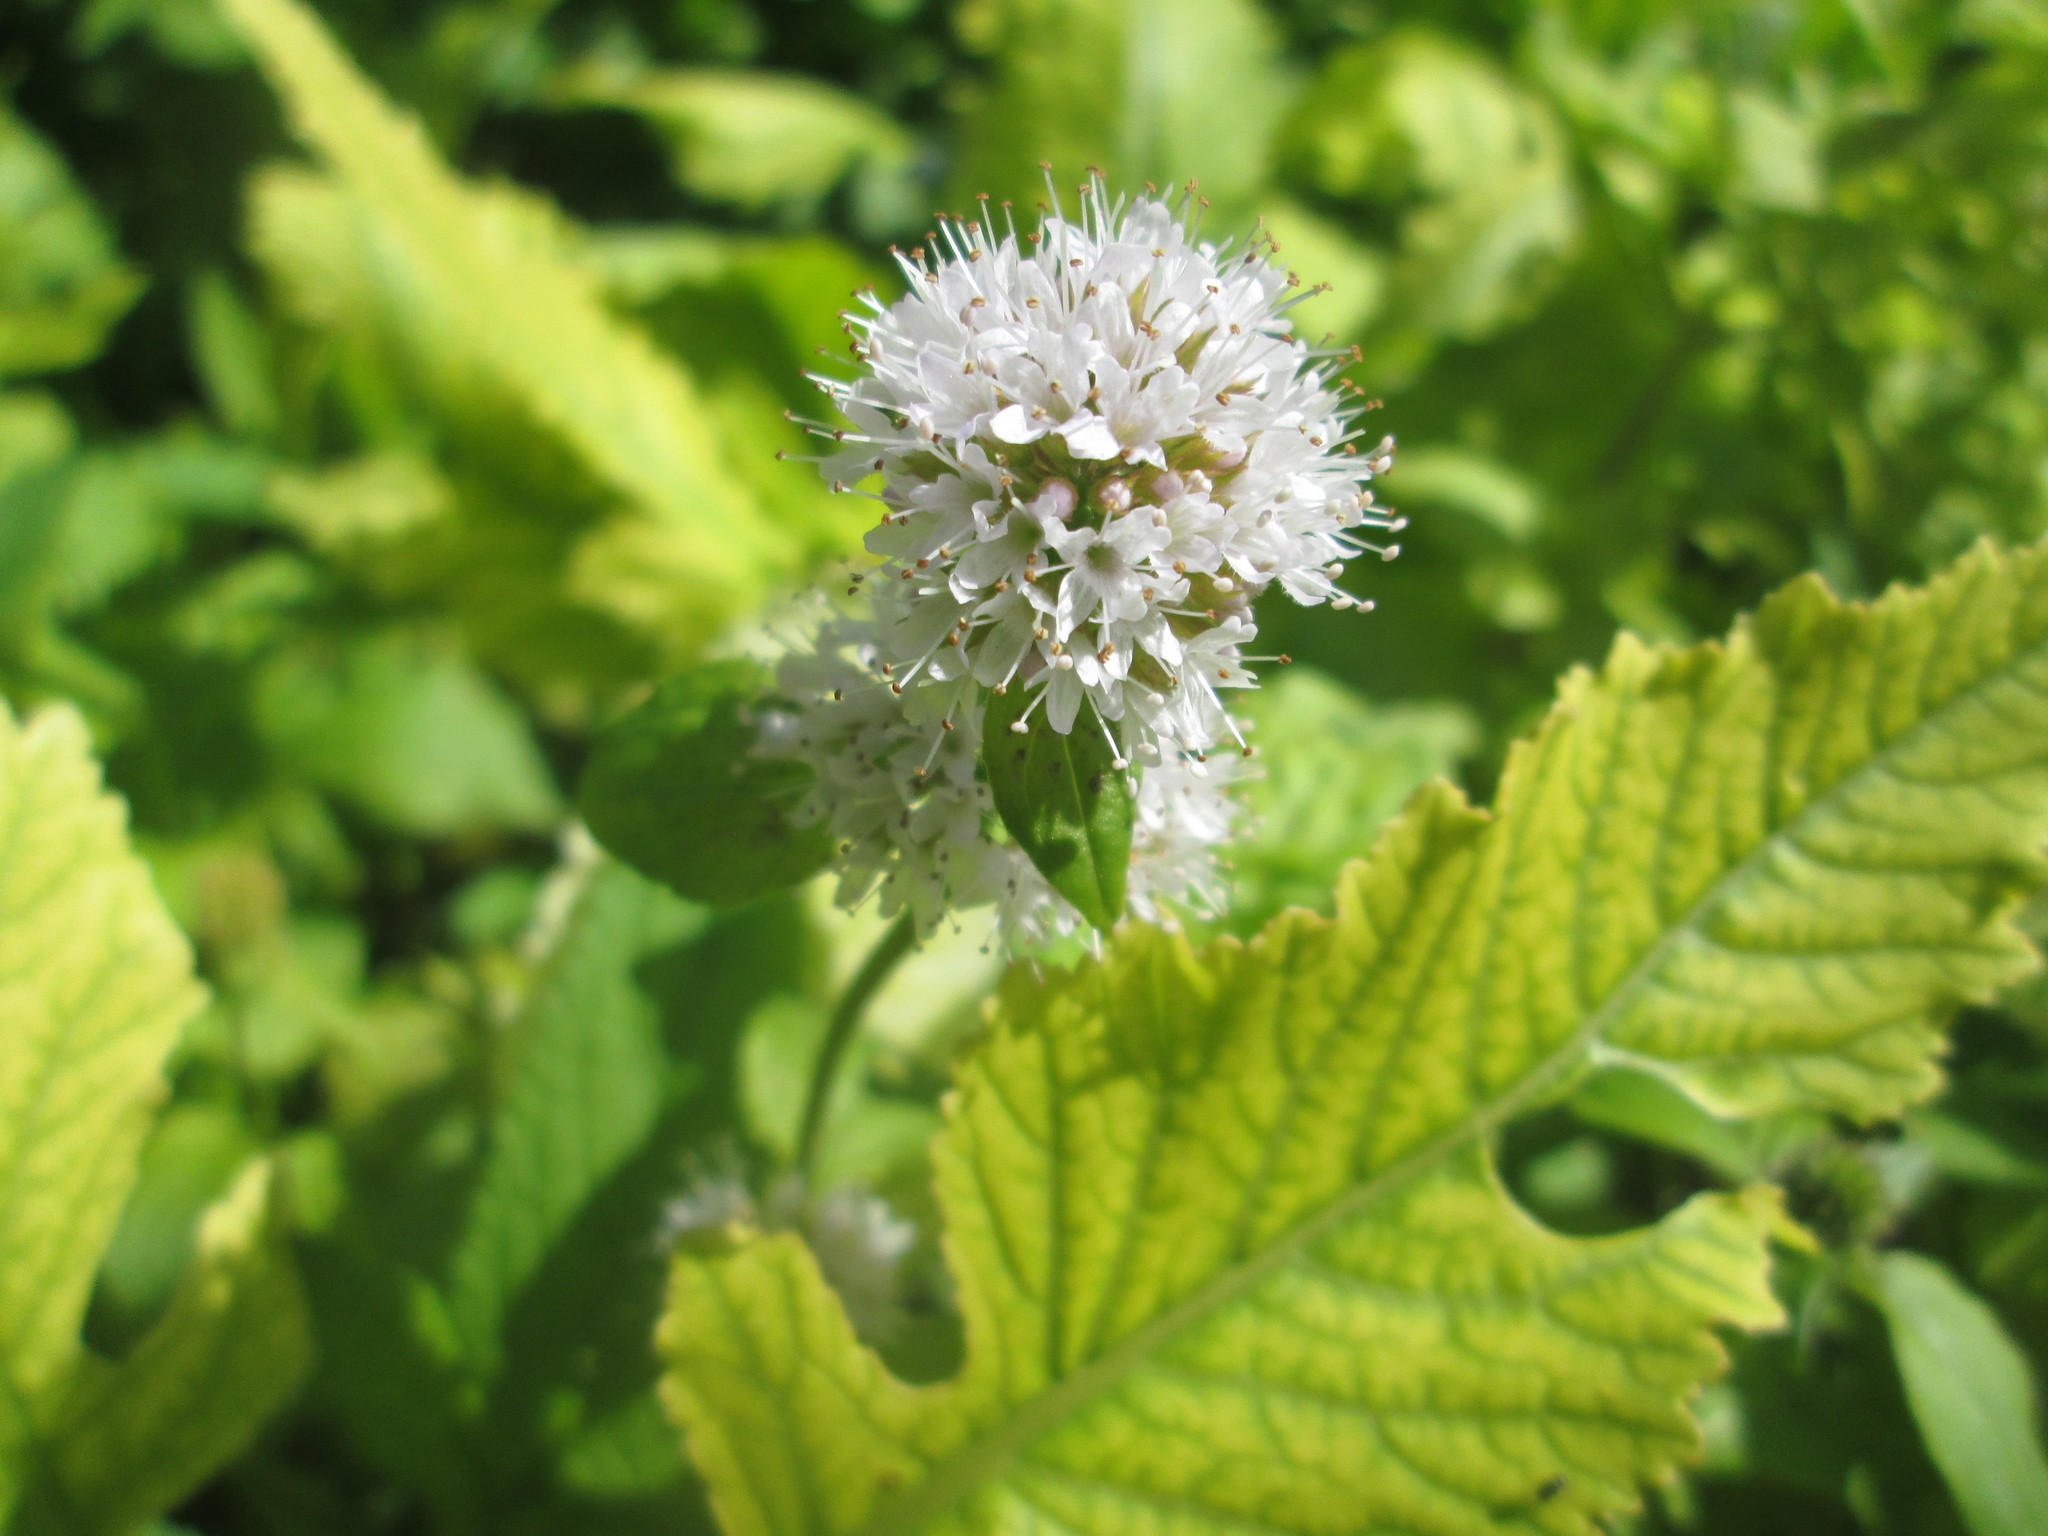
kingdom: Plantae
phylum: Tracheophyta
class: Magnoliopsida
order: Lamiales
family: Lamiaceae
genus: Mentha
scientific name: Mentha aquatica
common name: Water mint
